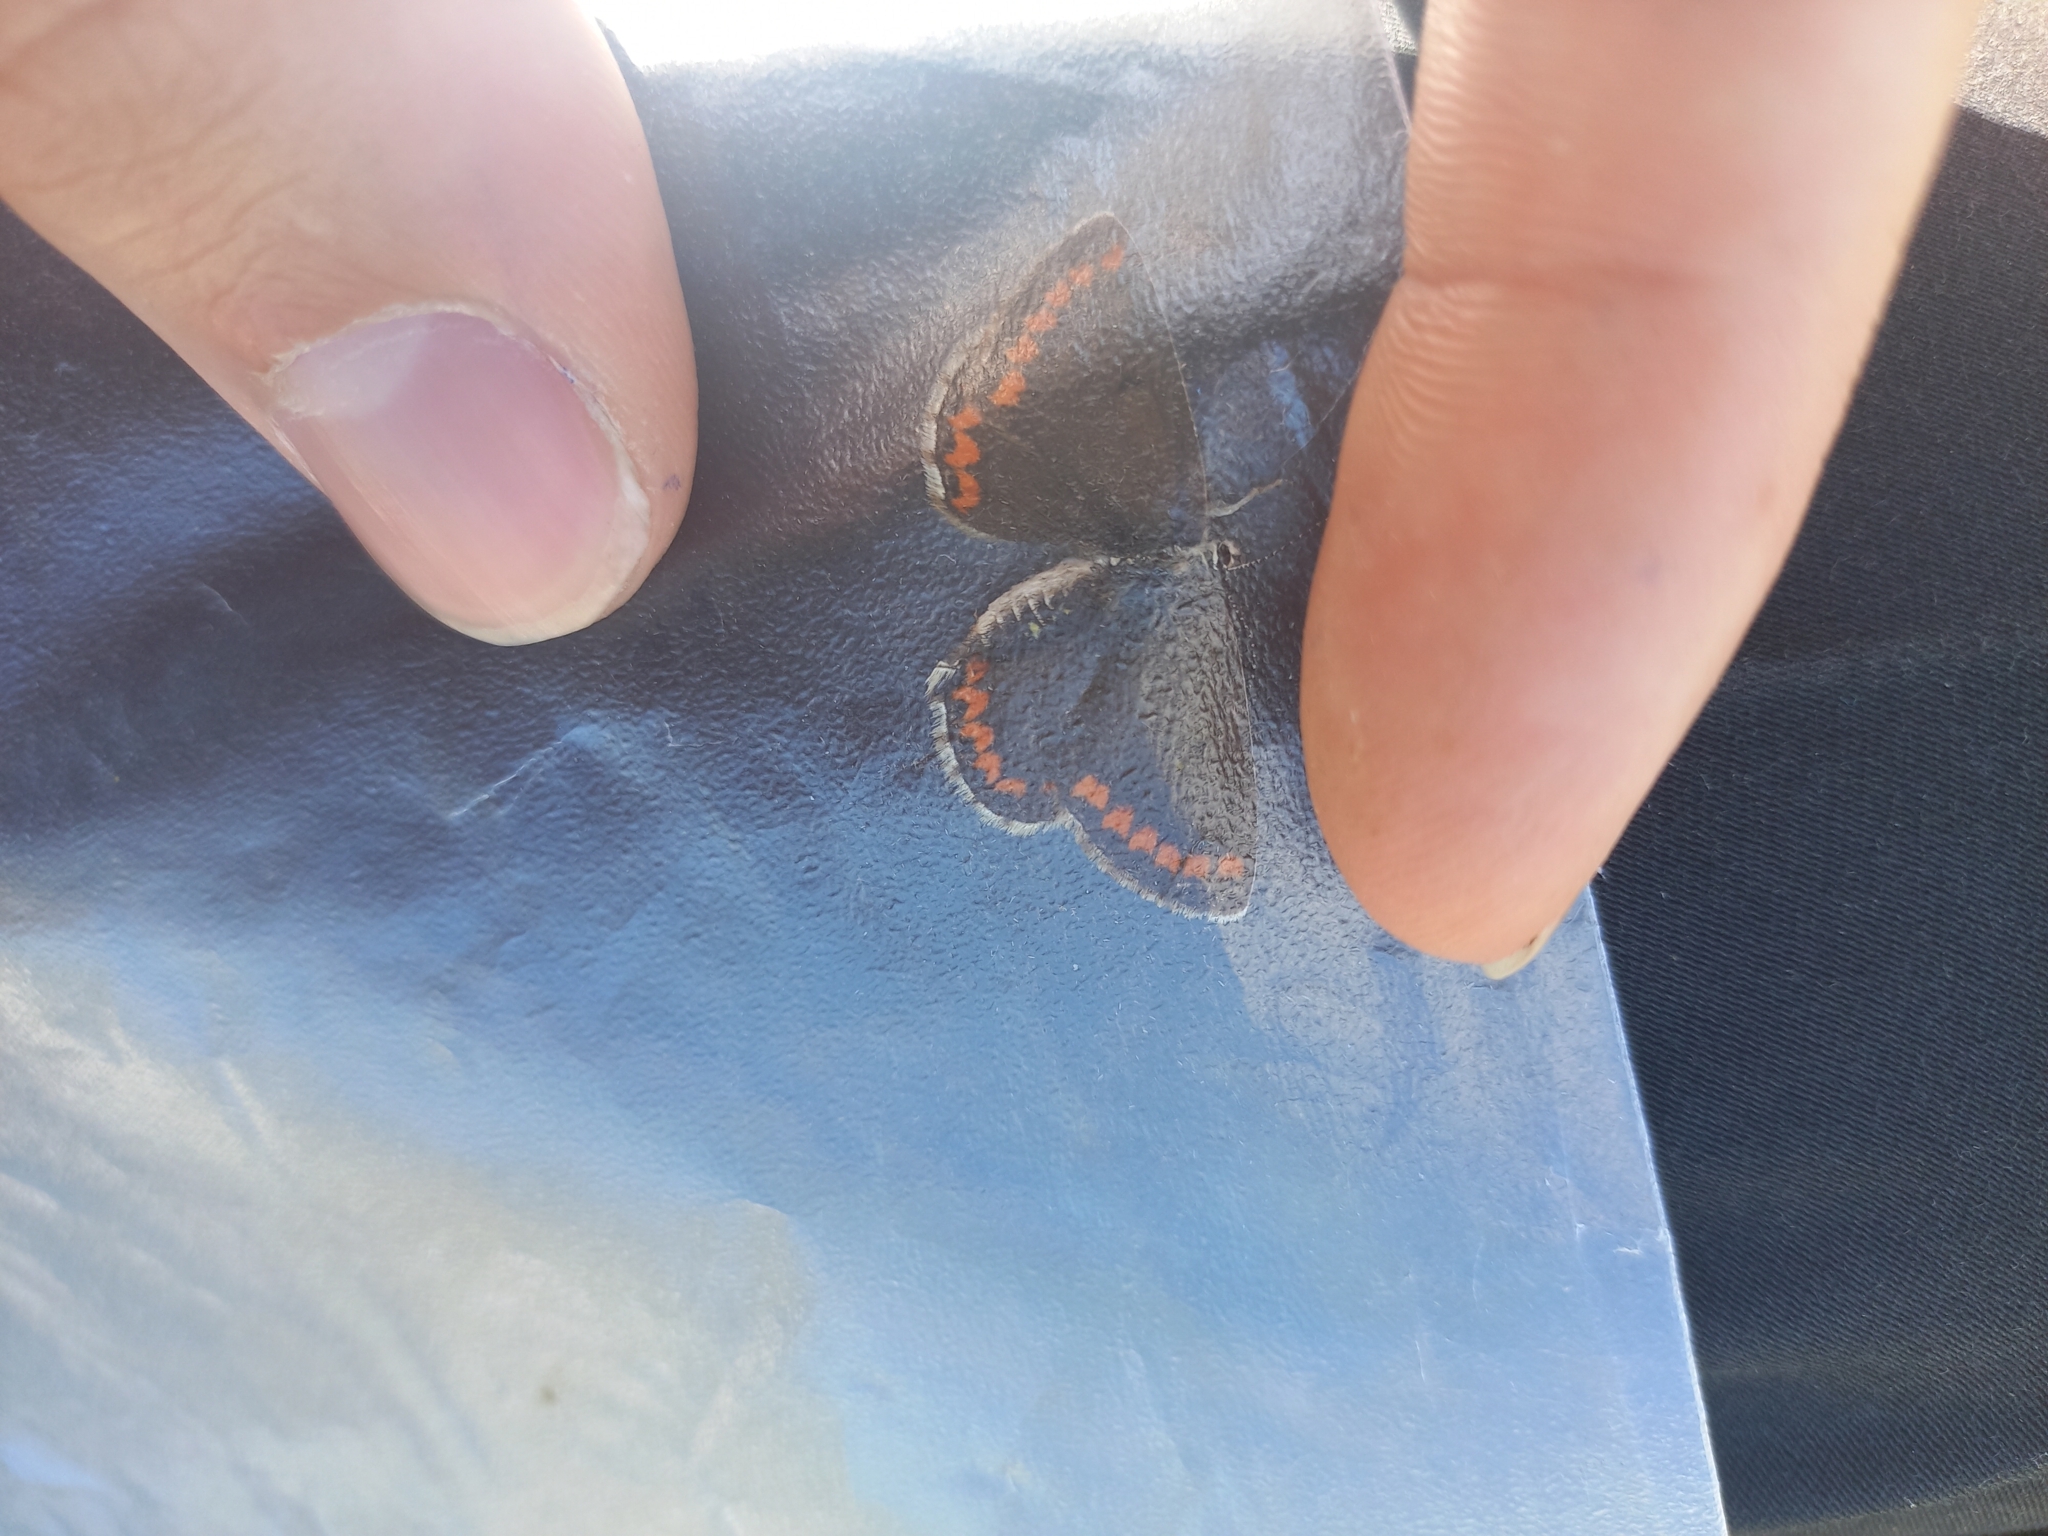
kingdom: Animalia
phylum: Arthropoda
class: Insecta
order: Lepidoptera
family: Lycaenidae
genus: Aricia
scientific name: Aricia agestis
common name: Brown argus
